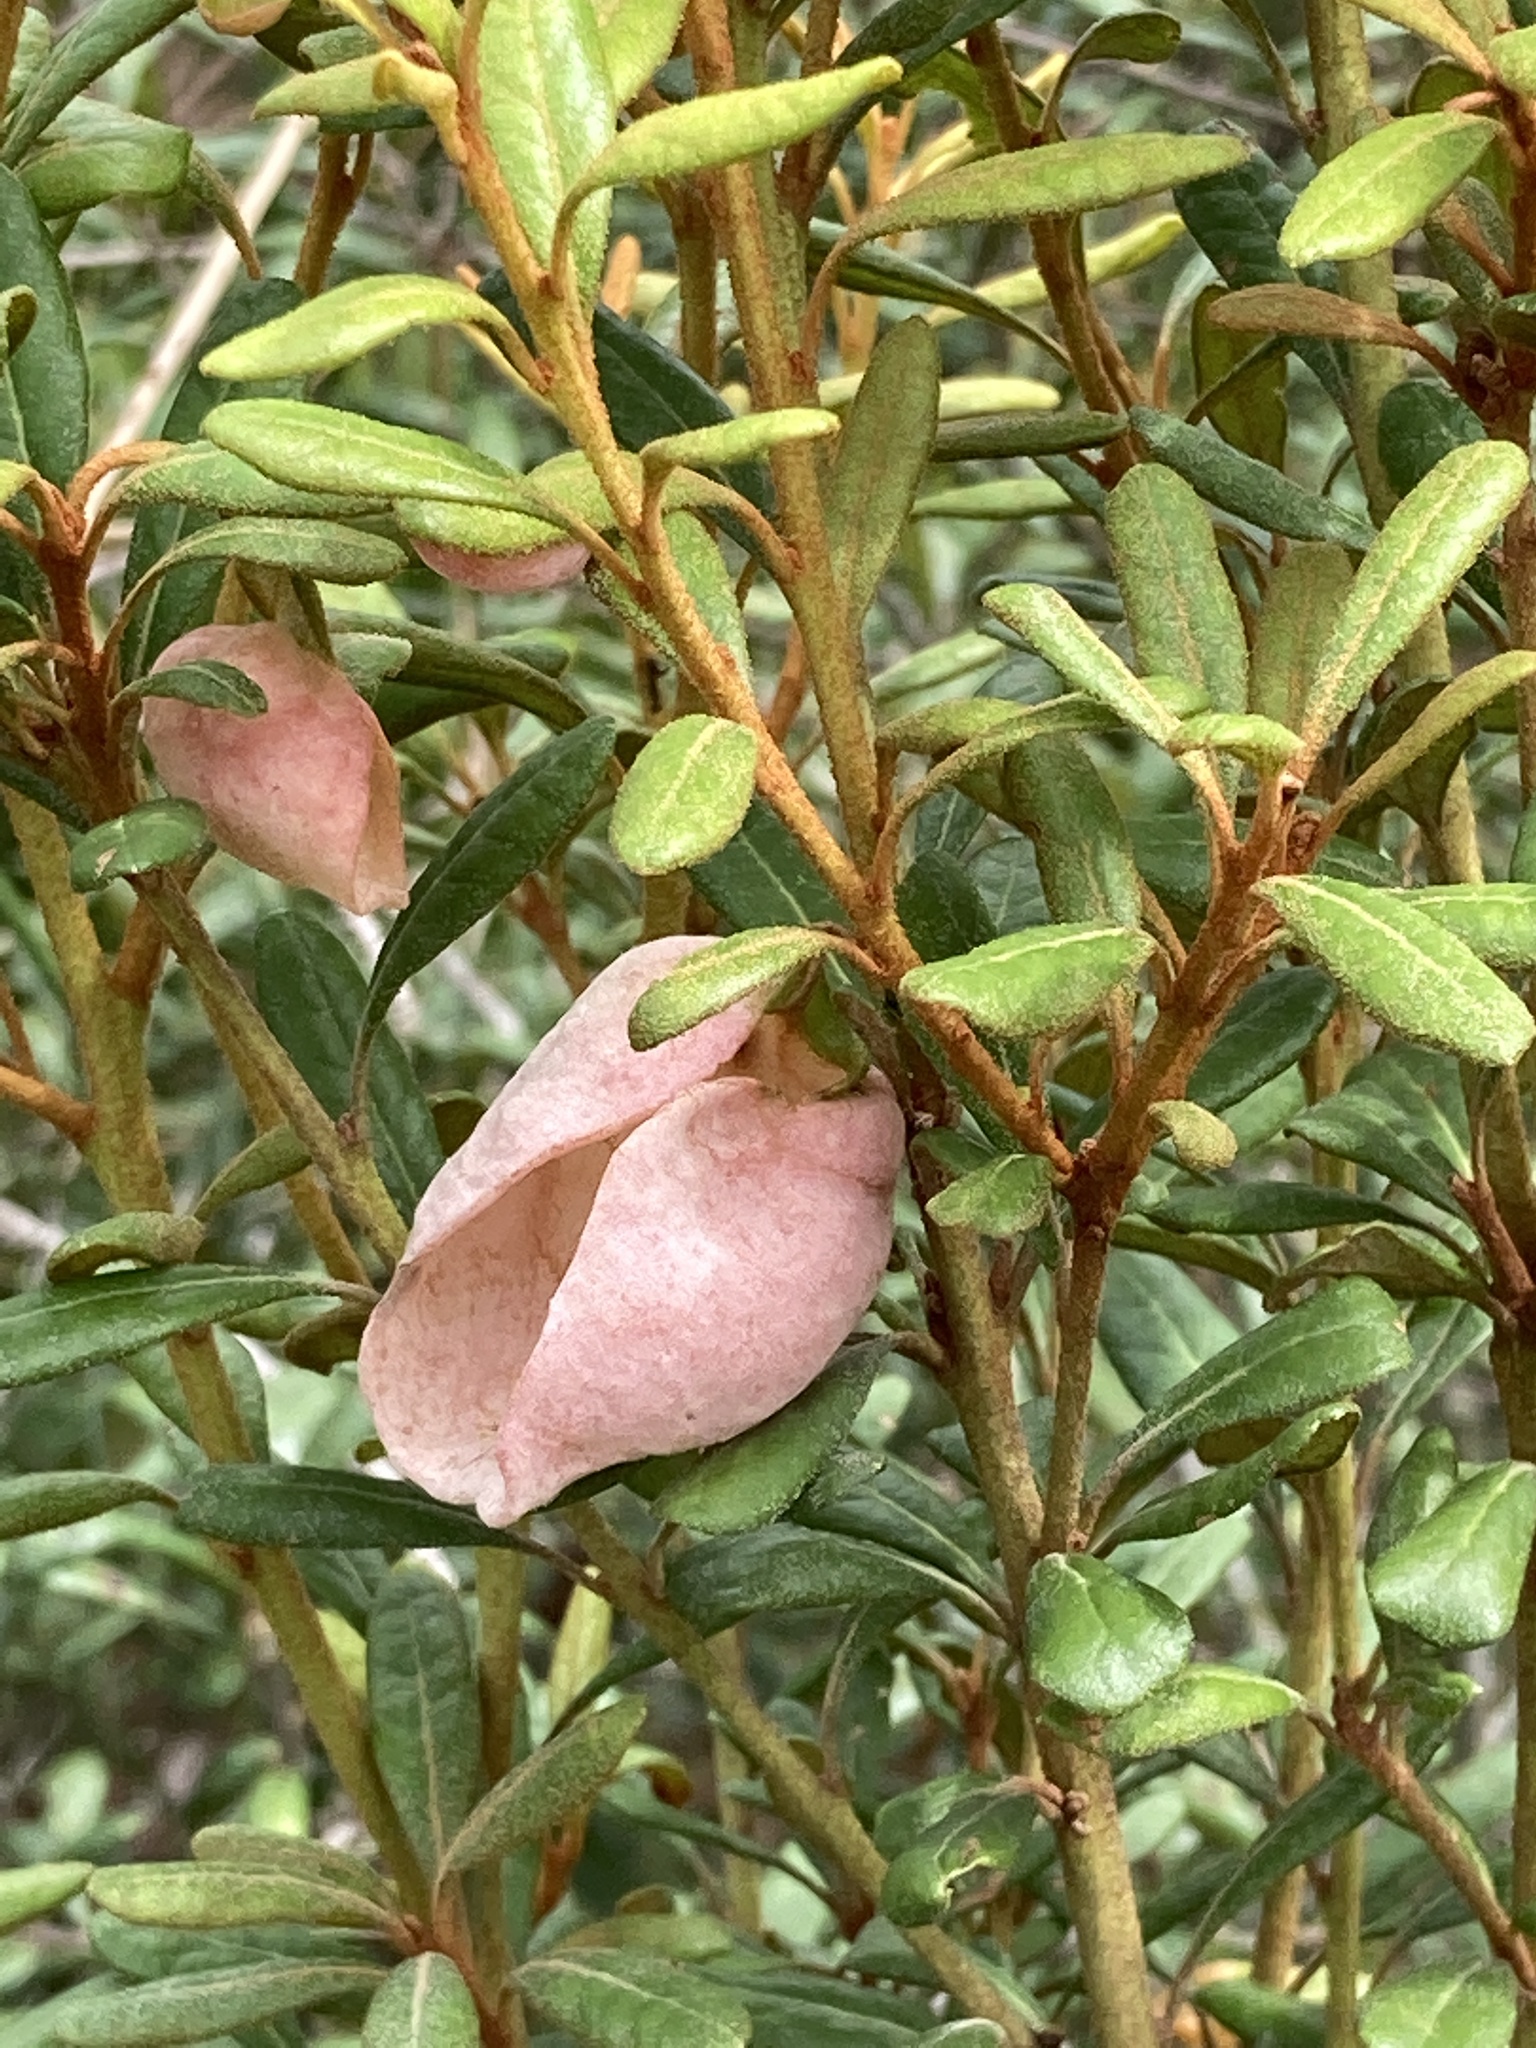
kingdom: Plantae
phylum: Tracheophyta
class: Magnoliopsida
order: Ericales
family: Ericaceae
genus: Lyonia
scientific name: Lyonia ferruginea
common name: Rusty lyonia
